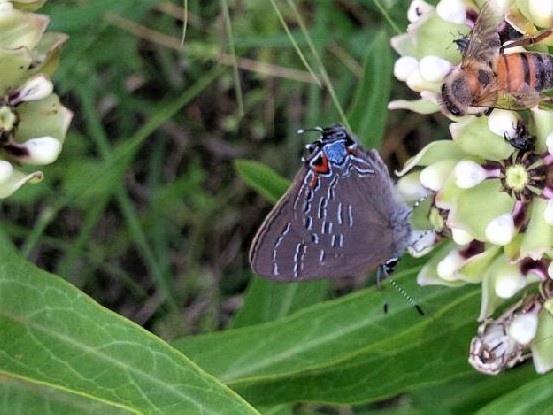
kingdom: Animalia
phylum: Arthropoda
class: Insecta
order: Lepidoptera
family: Lycaenidae
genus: Satyrium
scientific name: Satyrium calanus
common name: Banded hairstreak
